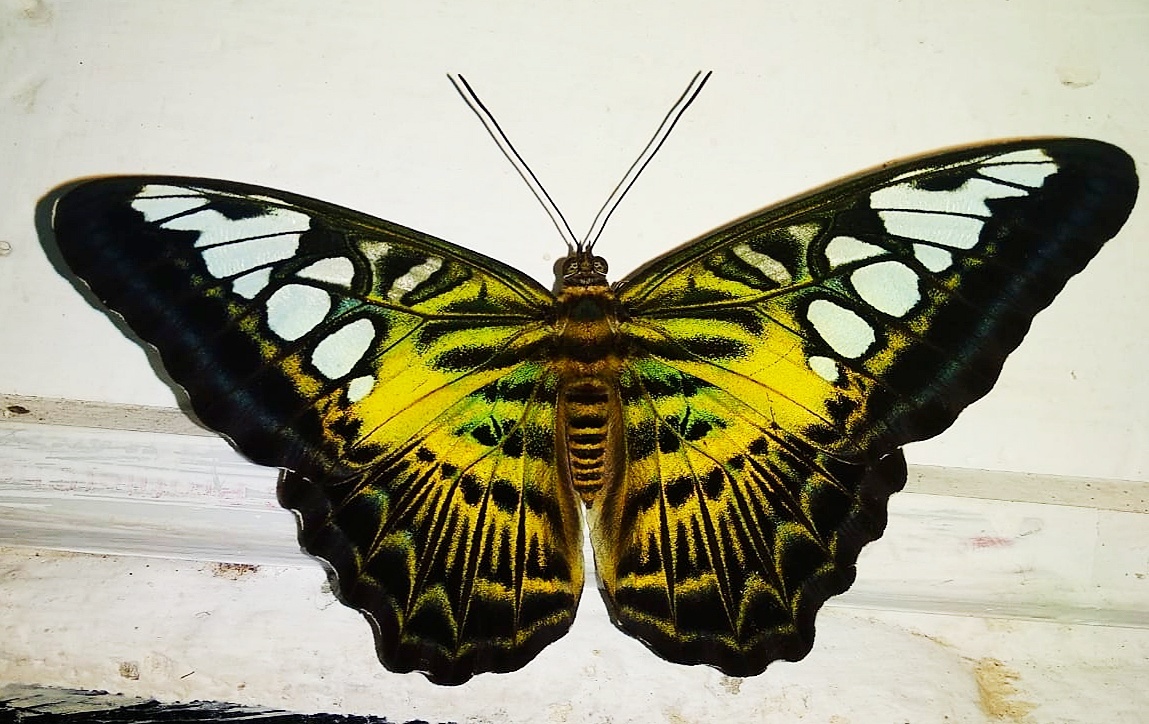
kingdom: Animalia
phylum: Arthropoda
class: Insecta
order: Lepidoptera
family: Nymphalidae
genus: Kallima
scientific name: Kallima sylvia
